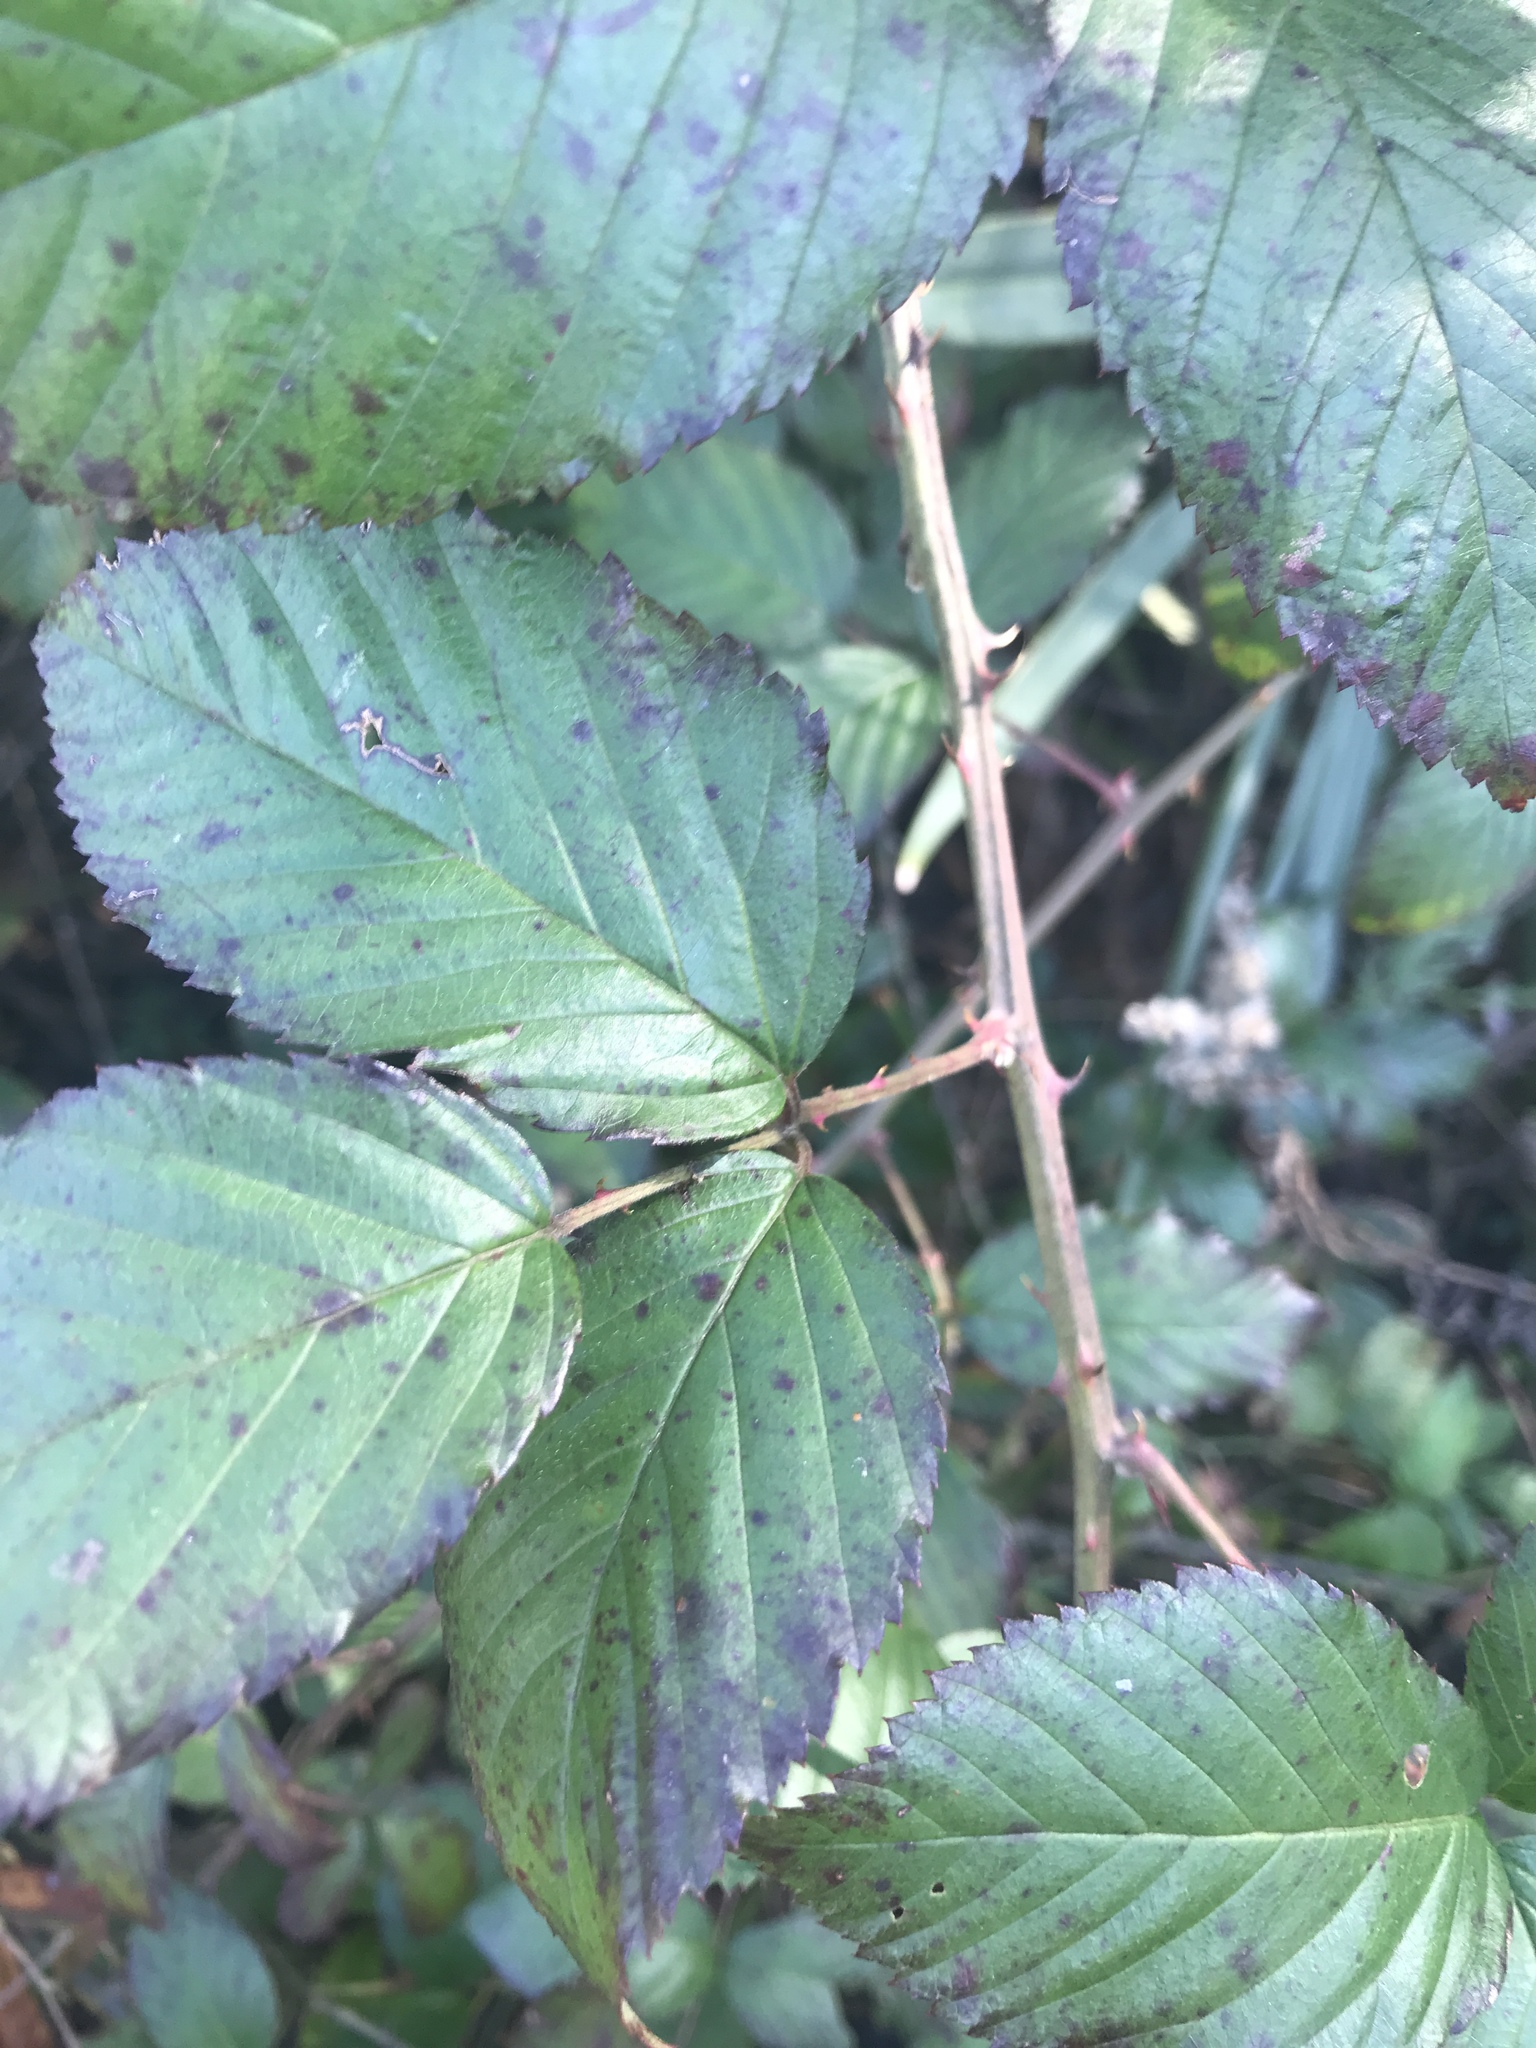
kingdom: Plantae
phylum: Tracheophyta
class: Magnoliopsida
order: Rosales
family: Rosaceae
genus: Rubus
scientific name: Rubus pensilvanicus
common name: Pennsylvania blackberry
